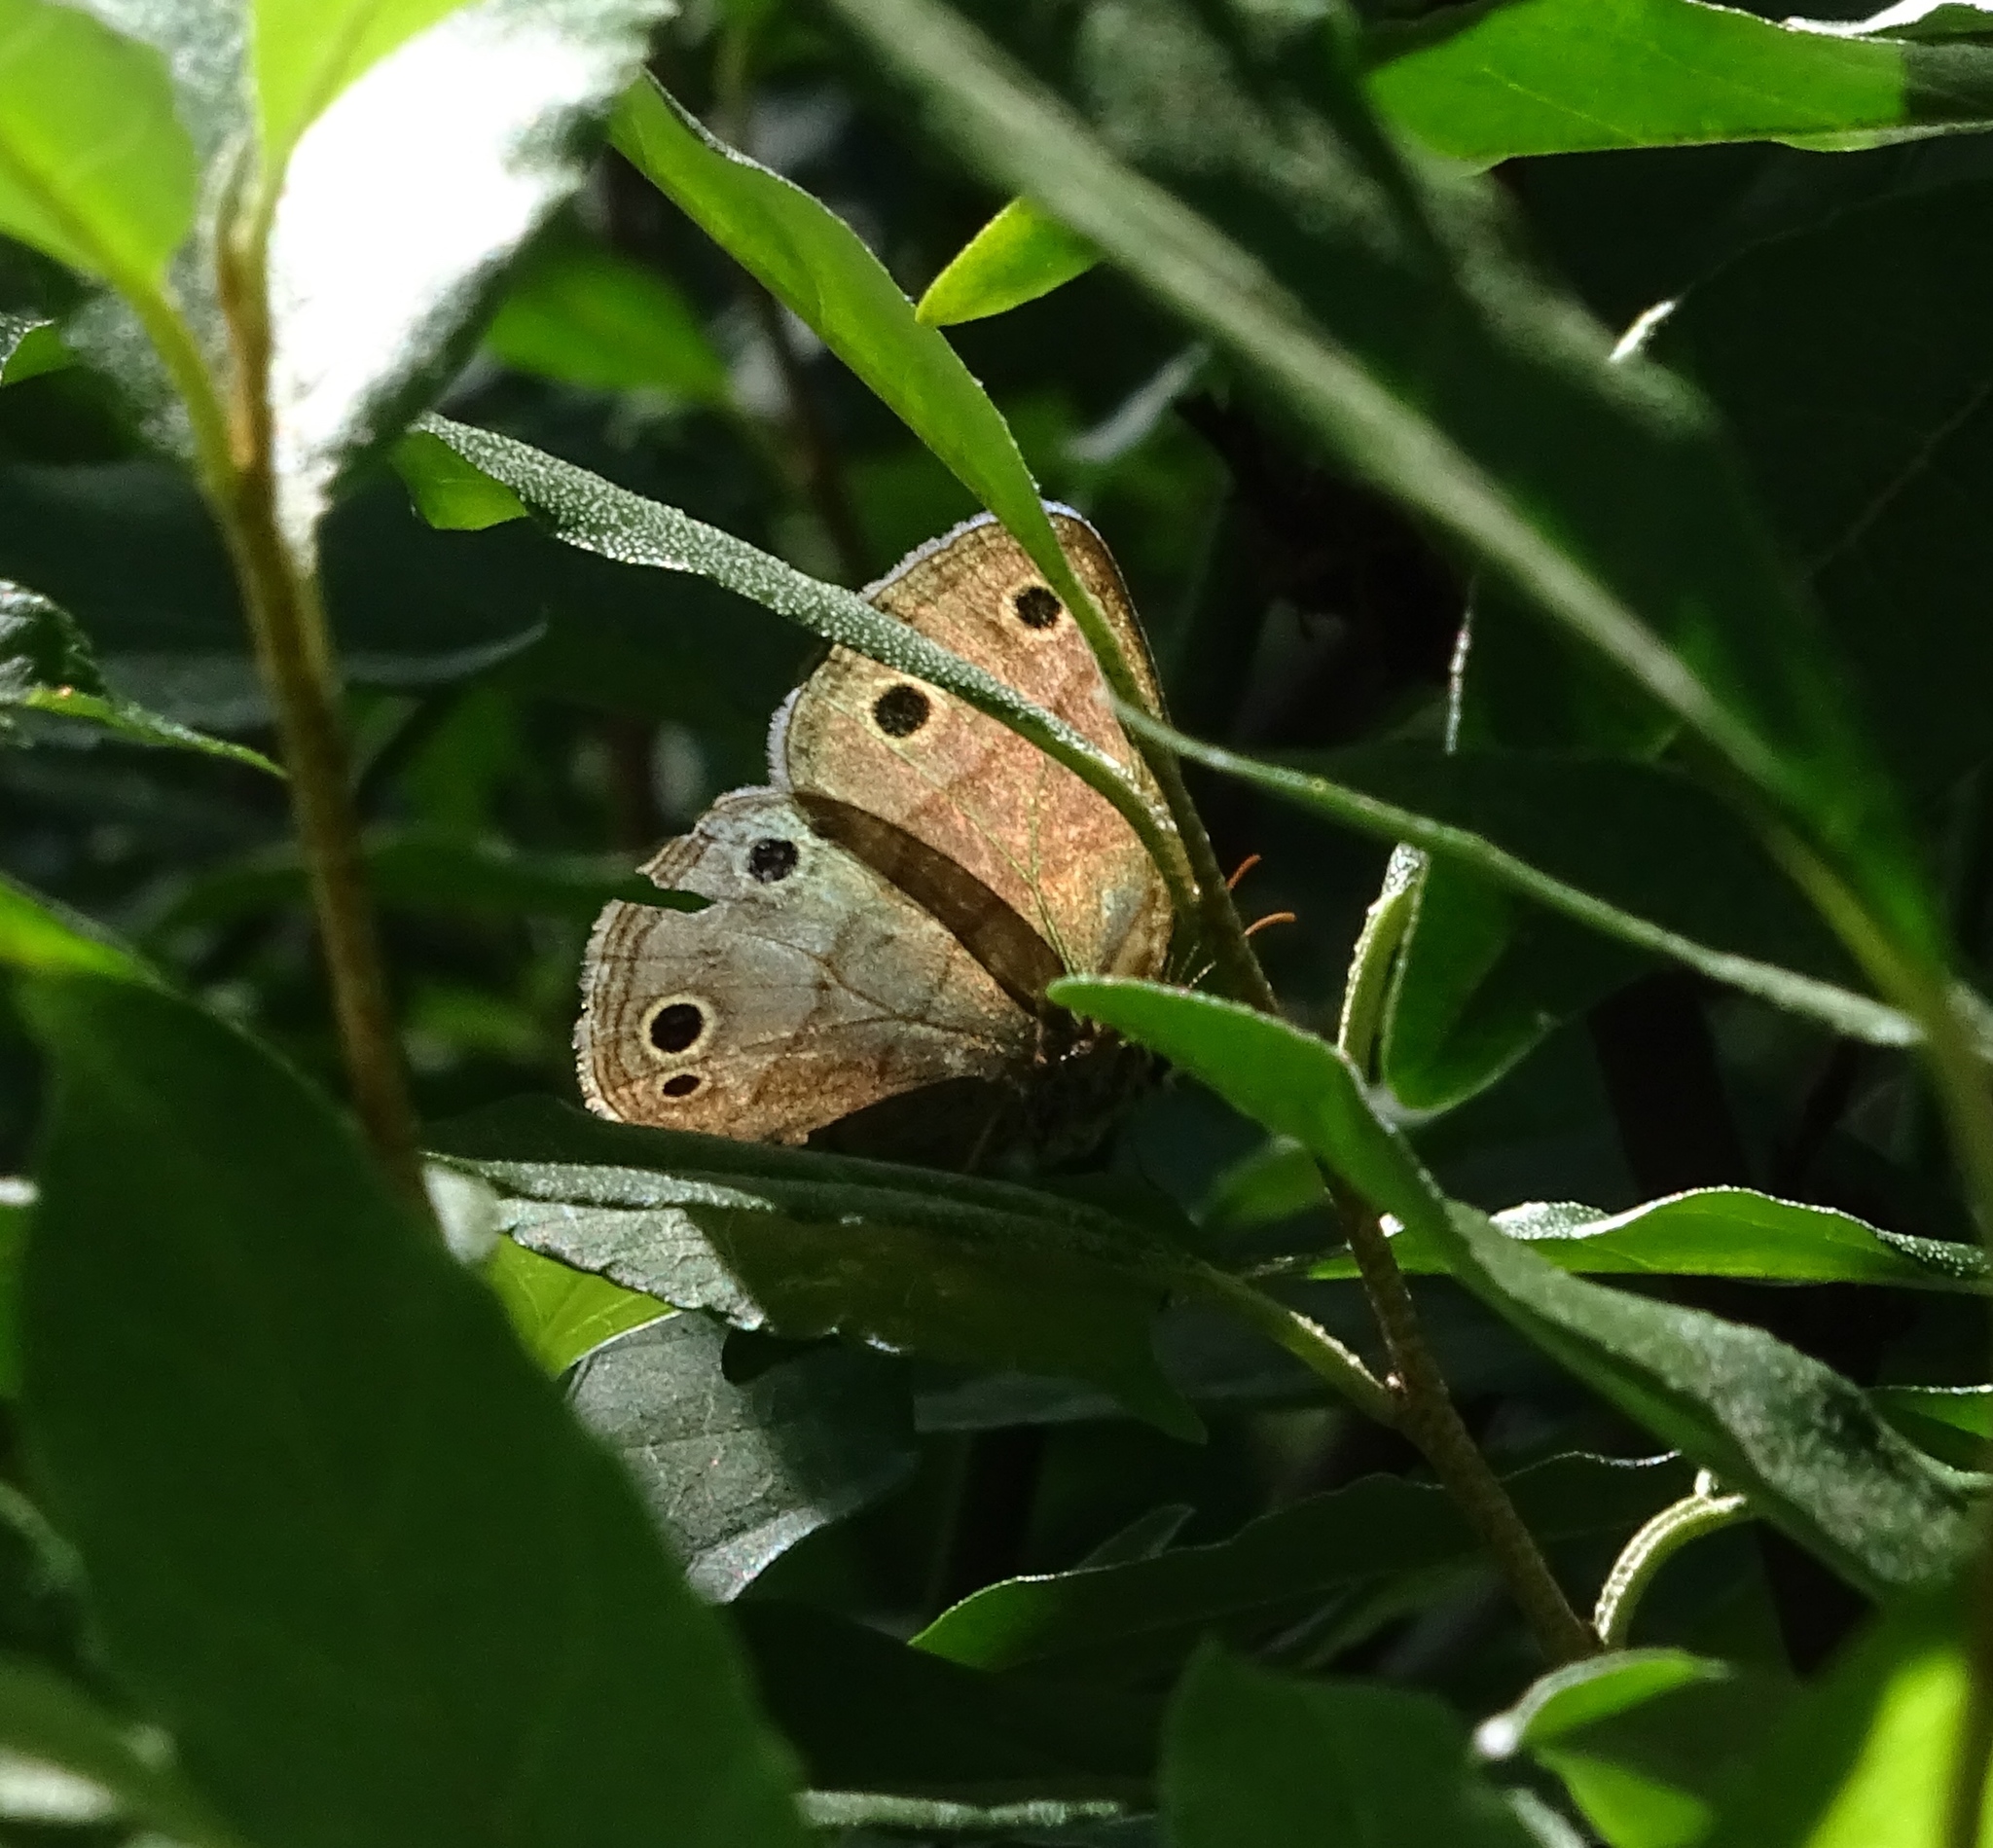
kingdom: Animalia
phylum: Arthropoda
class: Insecta
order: Lepidoptera
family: Nymphalidae
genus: Euptychia
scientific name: Euptychia cymela
